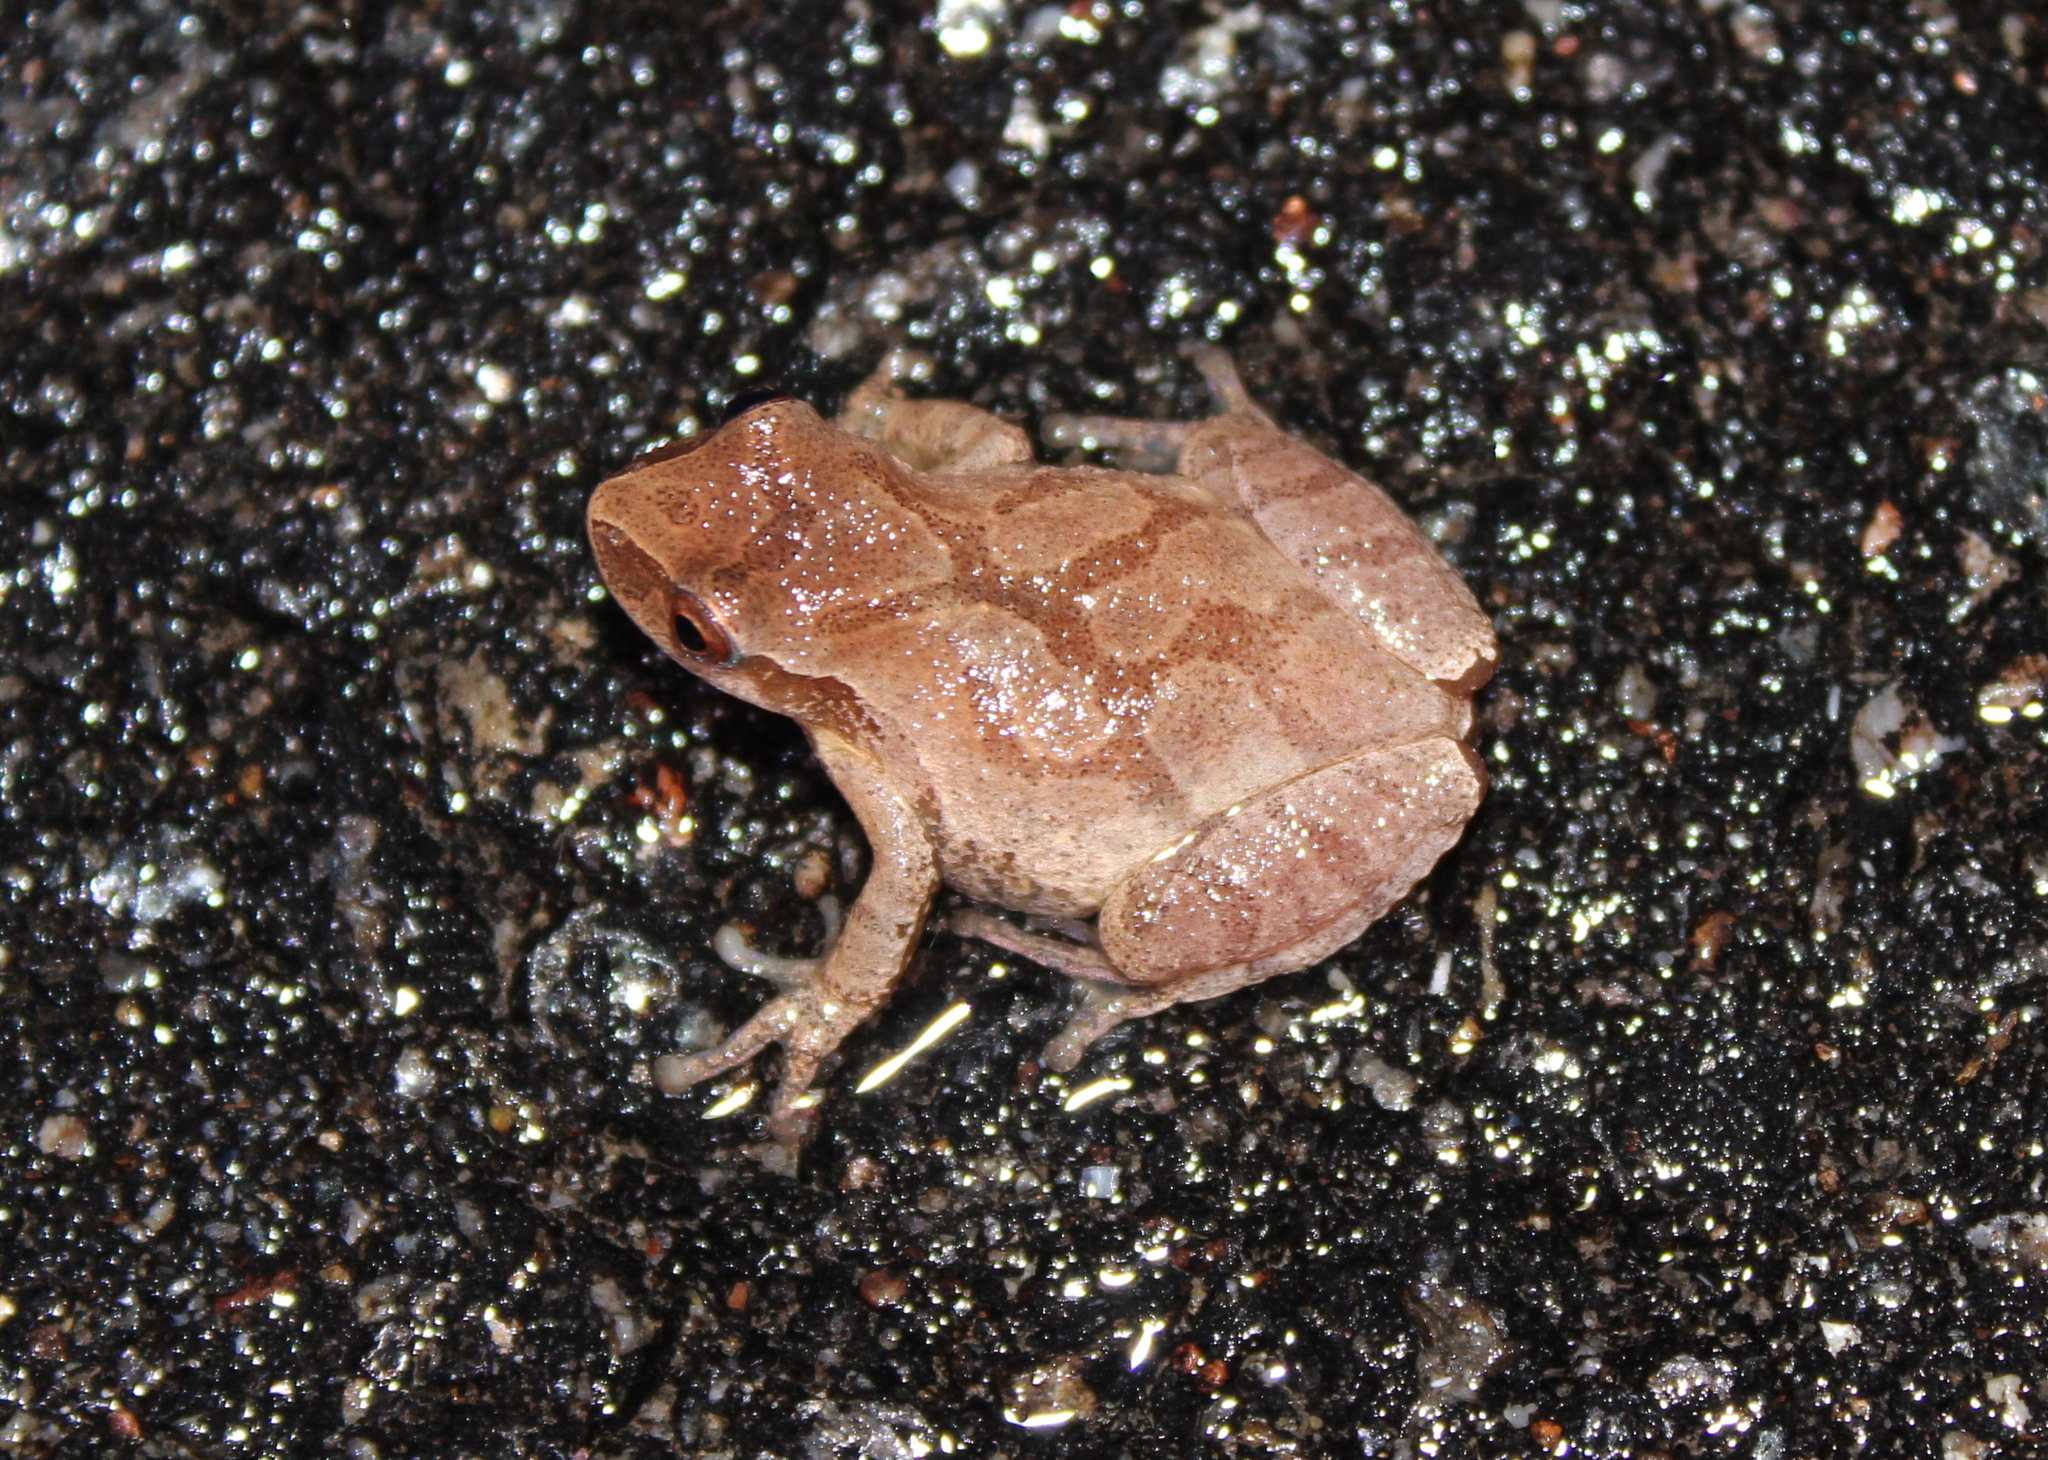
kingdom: Animalia
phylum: Chordata
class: Amphibia
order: Anura
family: Hylidae
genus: Pseudacris
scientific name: Pseudacris crucifer
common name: Spring peeper
